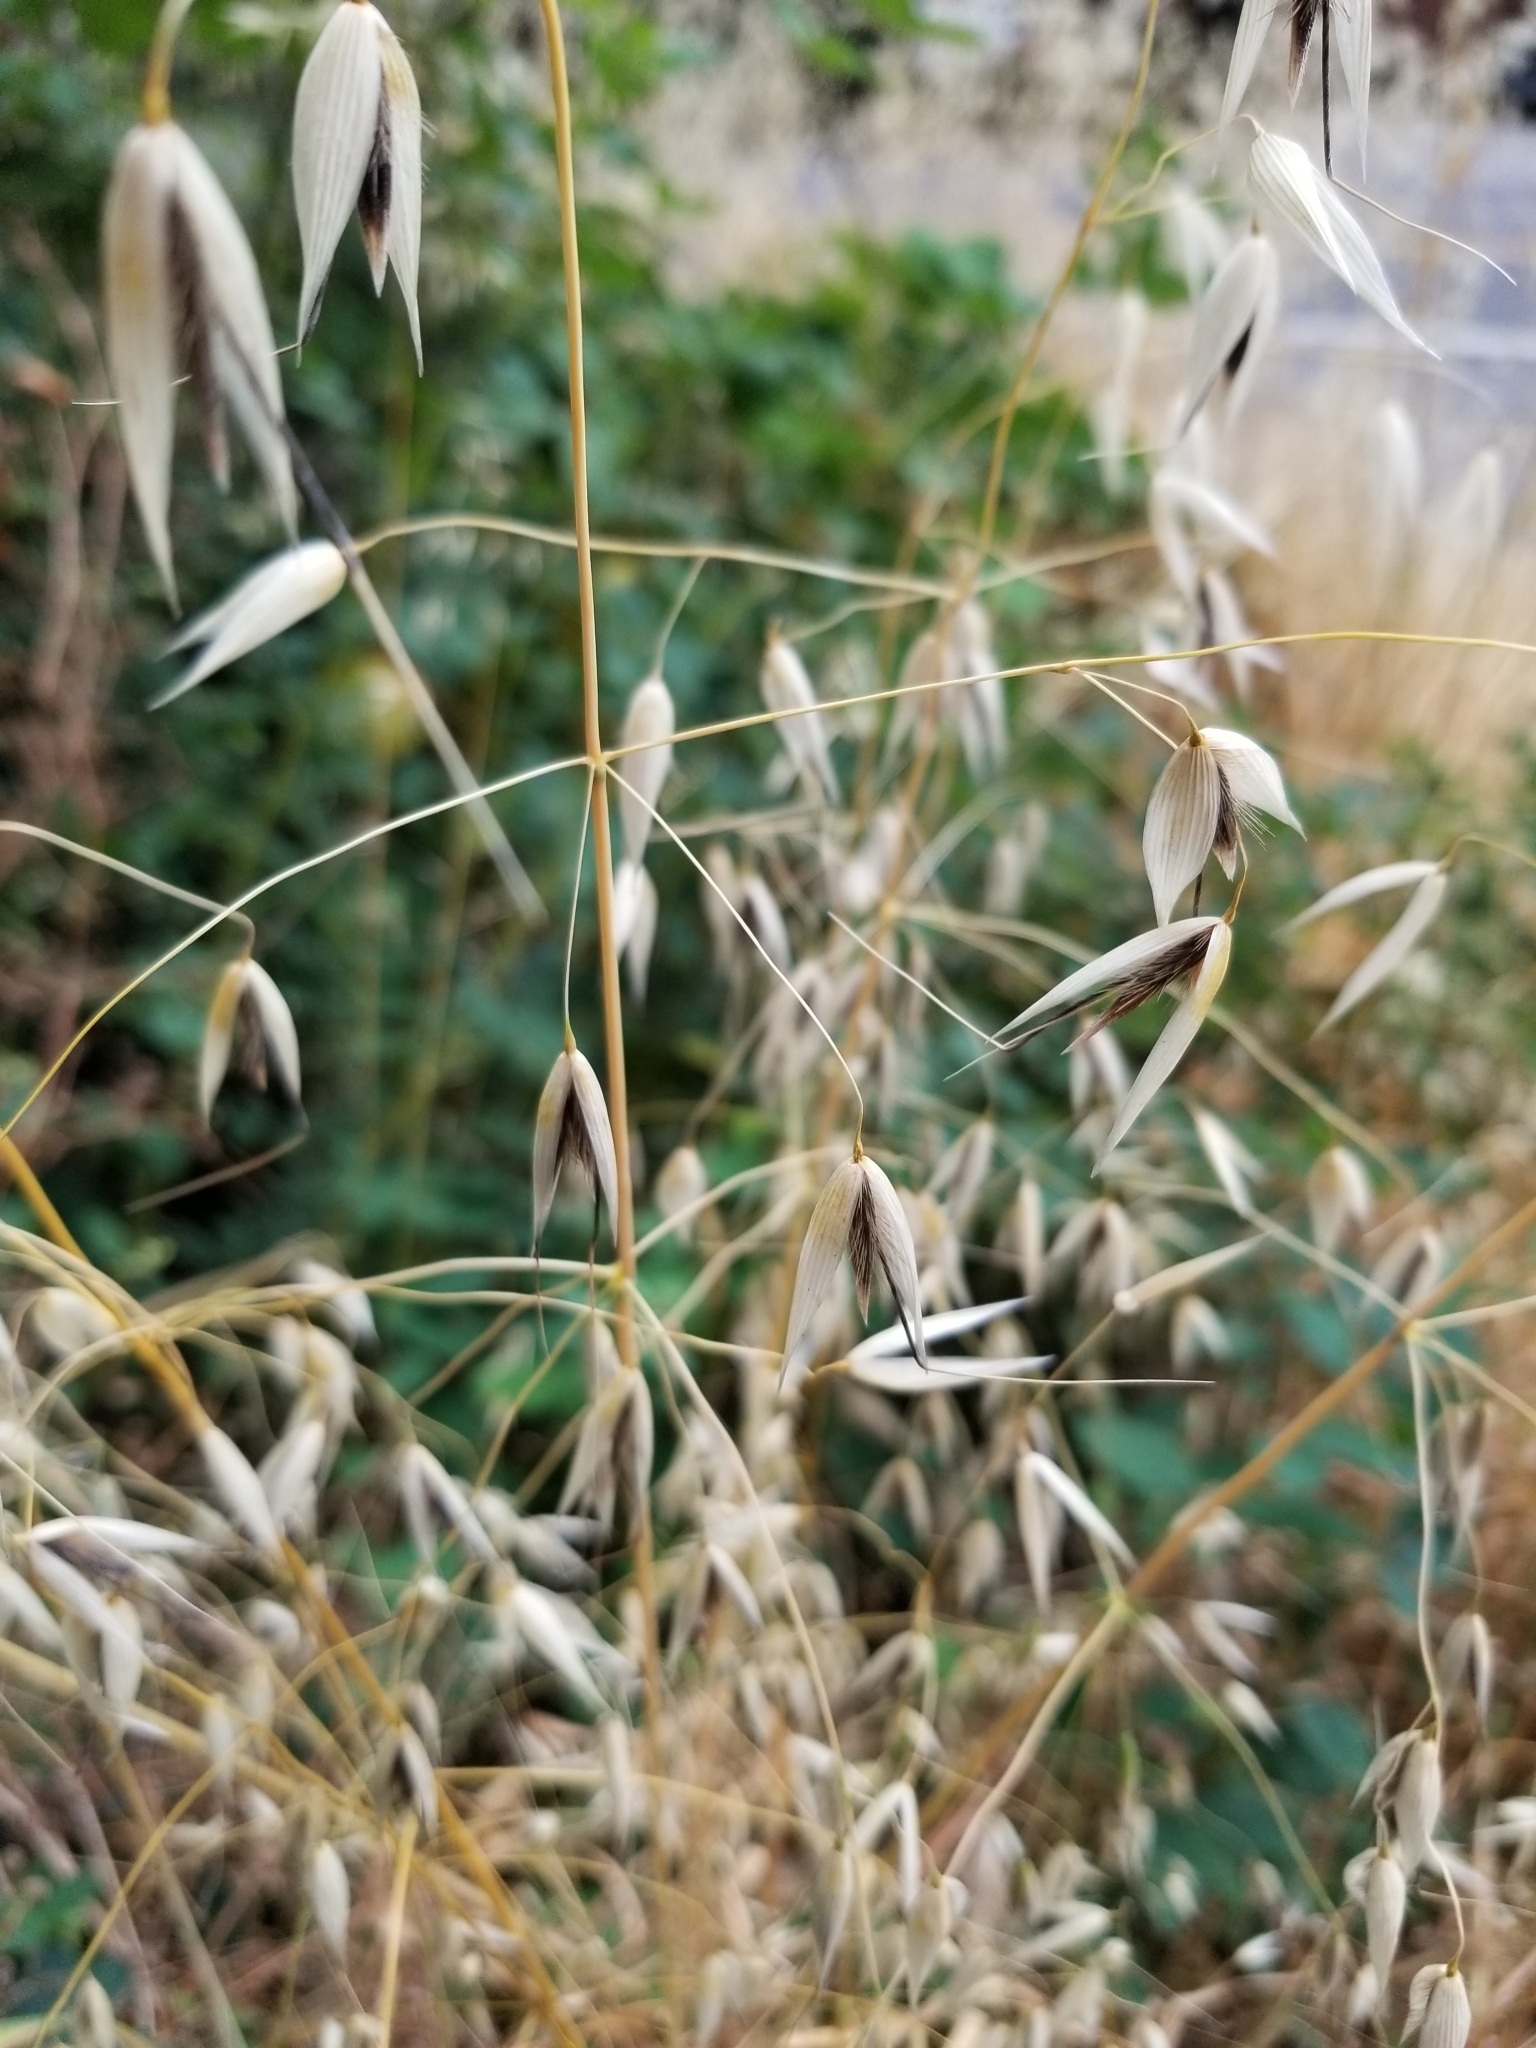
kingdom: Plantae
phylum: Tracheophyta
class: Liliopsida
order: Poales
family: Poaceae
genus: Avena
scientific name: Avena fatua
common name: Wild oat
